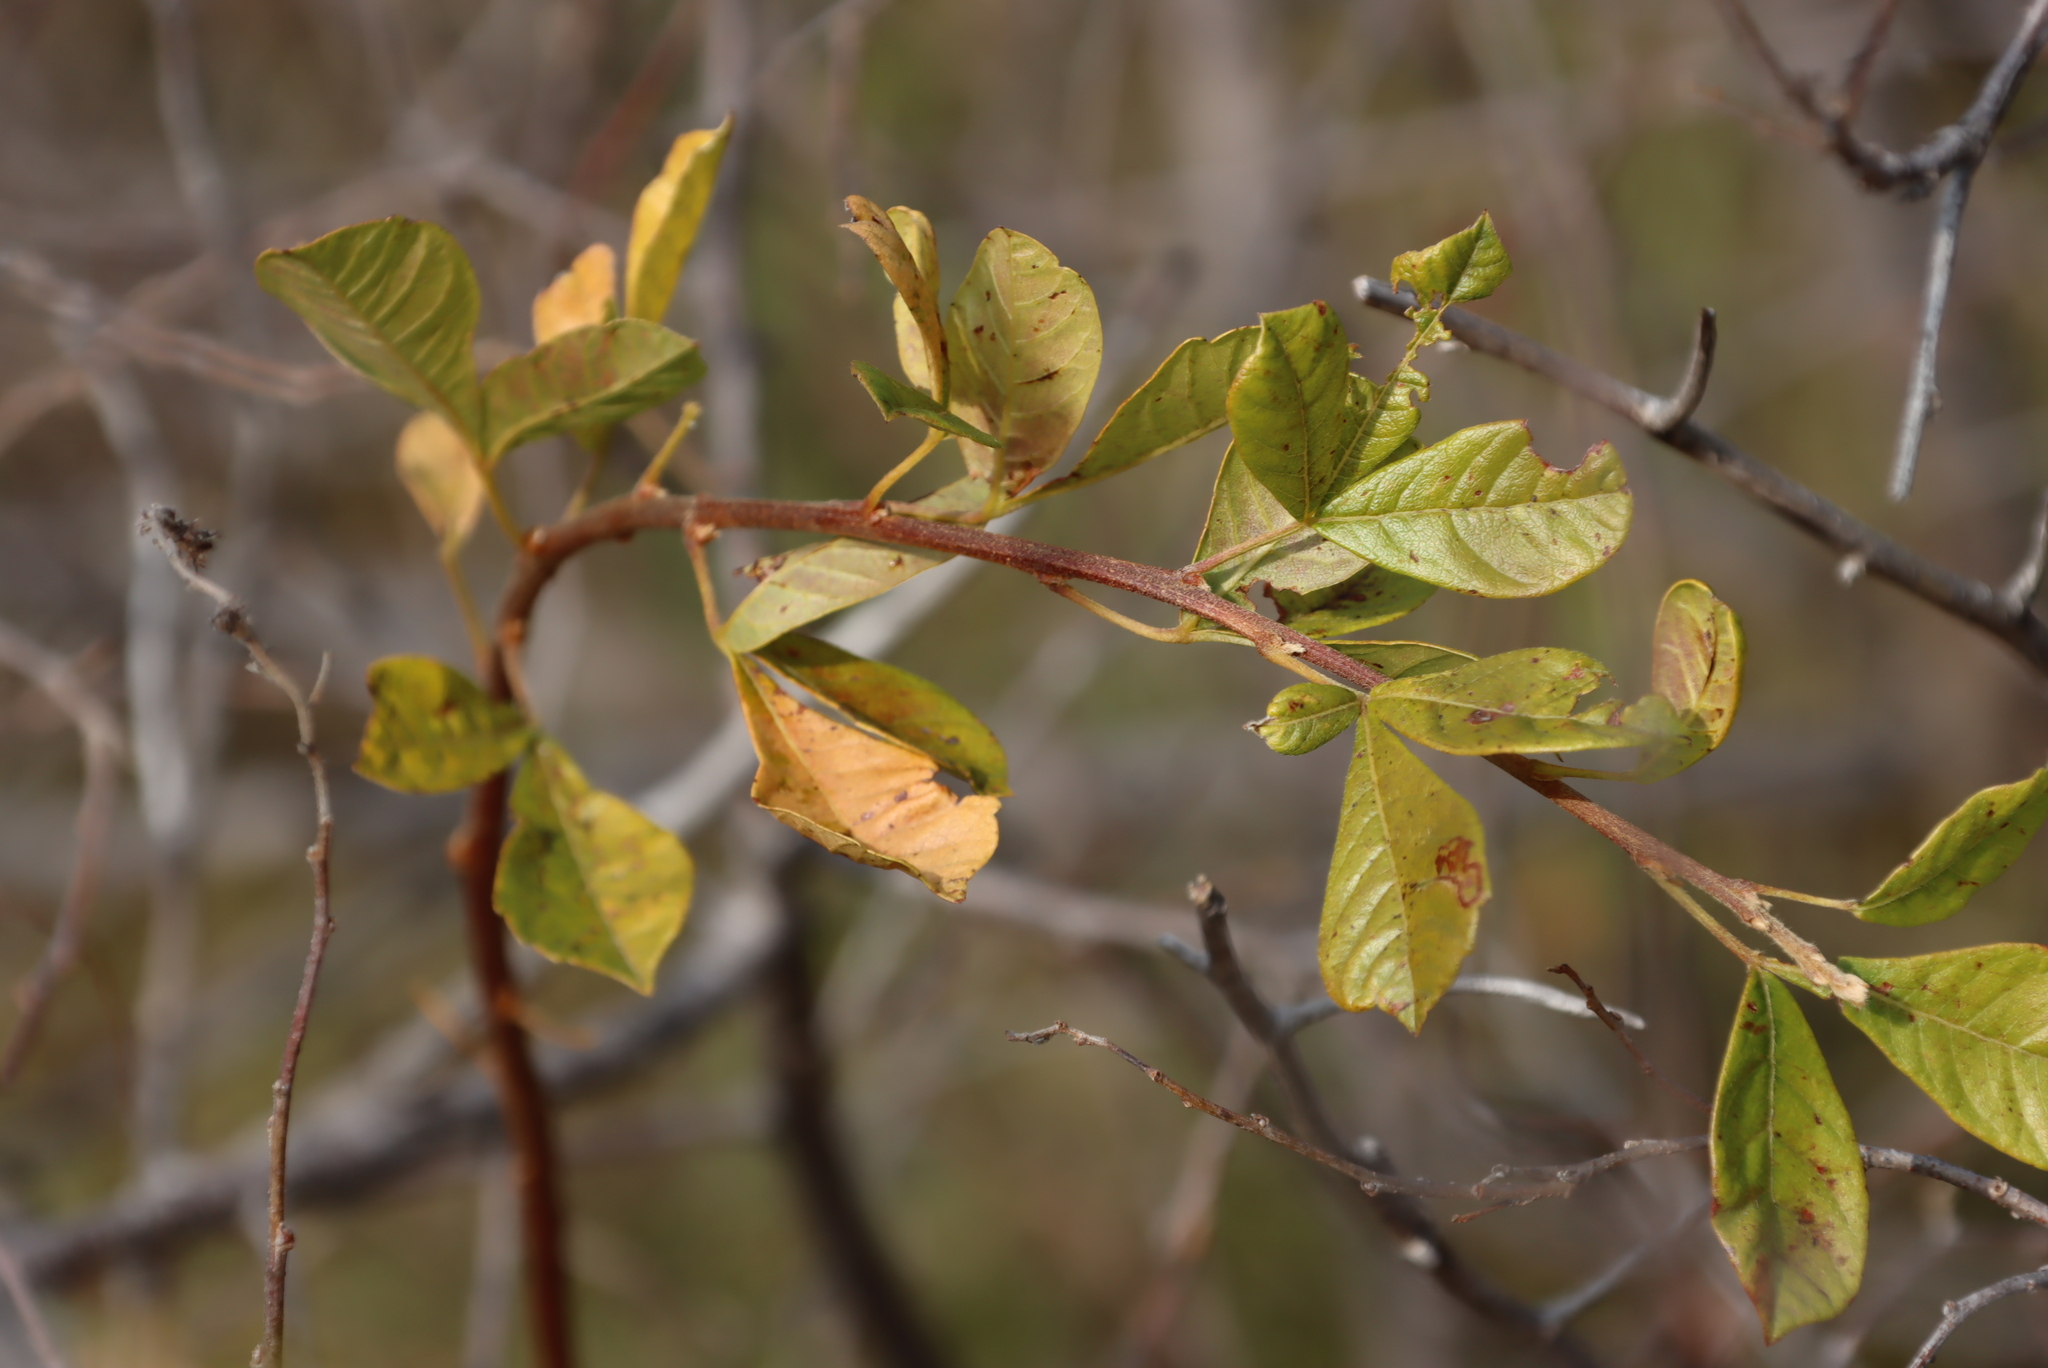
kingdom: Plantae
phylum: Tracheophyta
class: Magnoliopsida
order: Sapindales
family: Anacardiaceae
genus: Searsia
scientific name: Searsia pyroides
